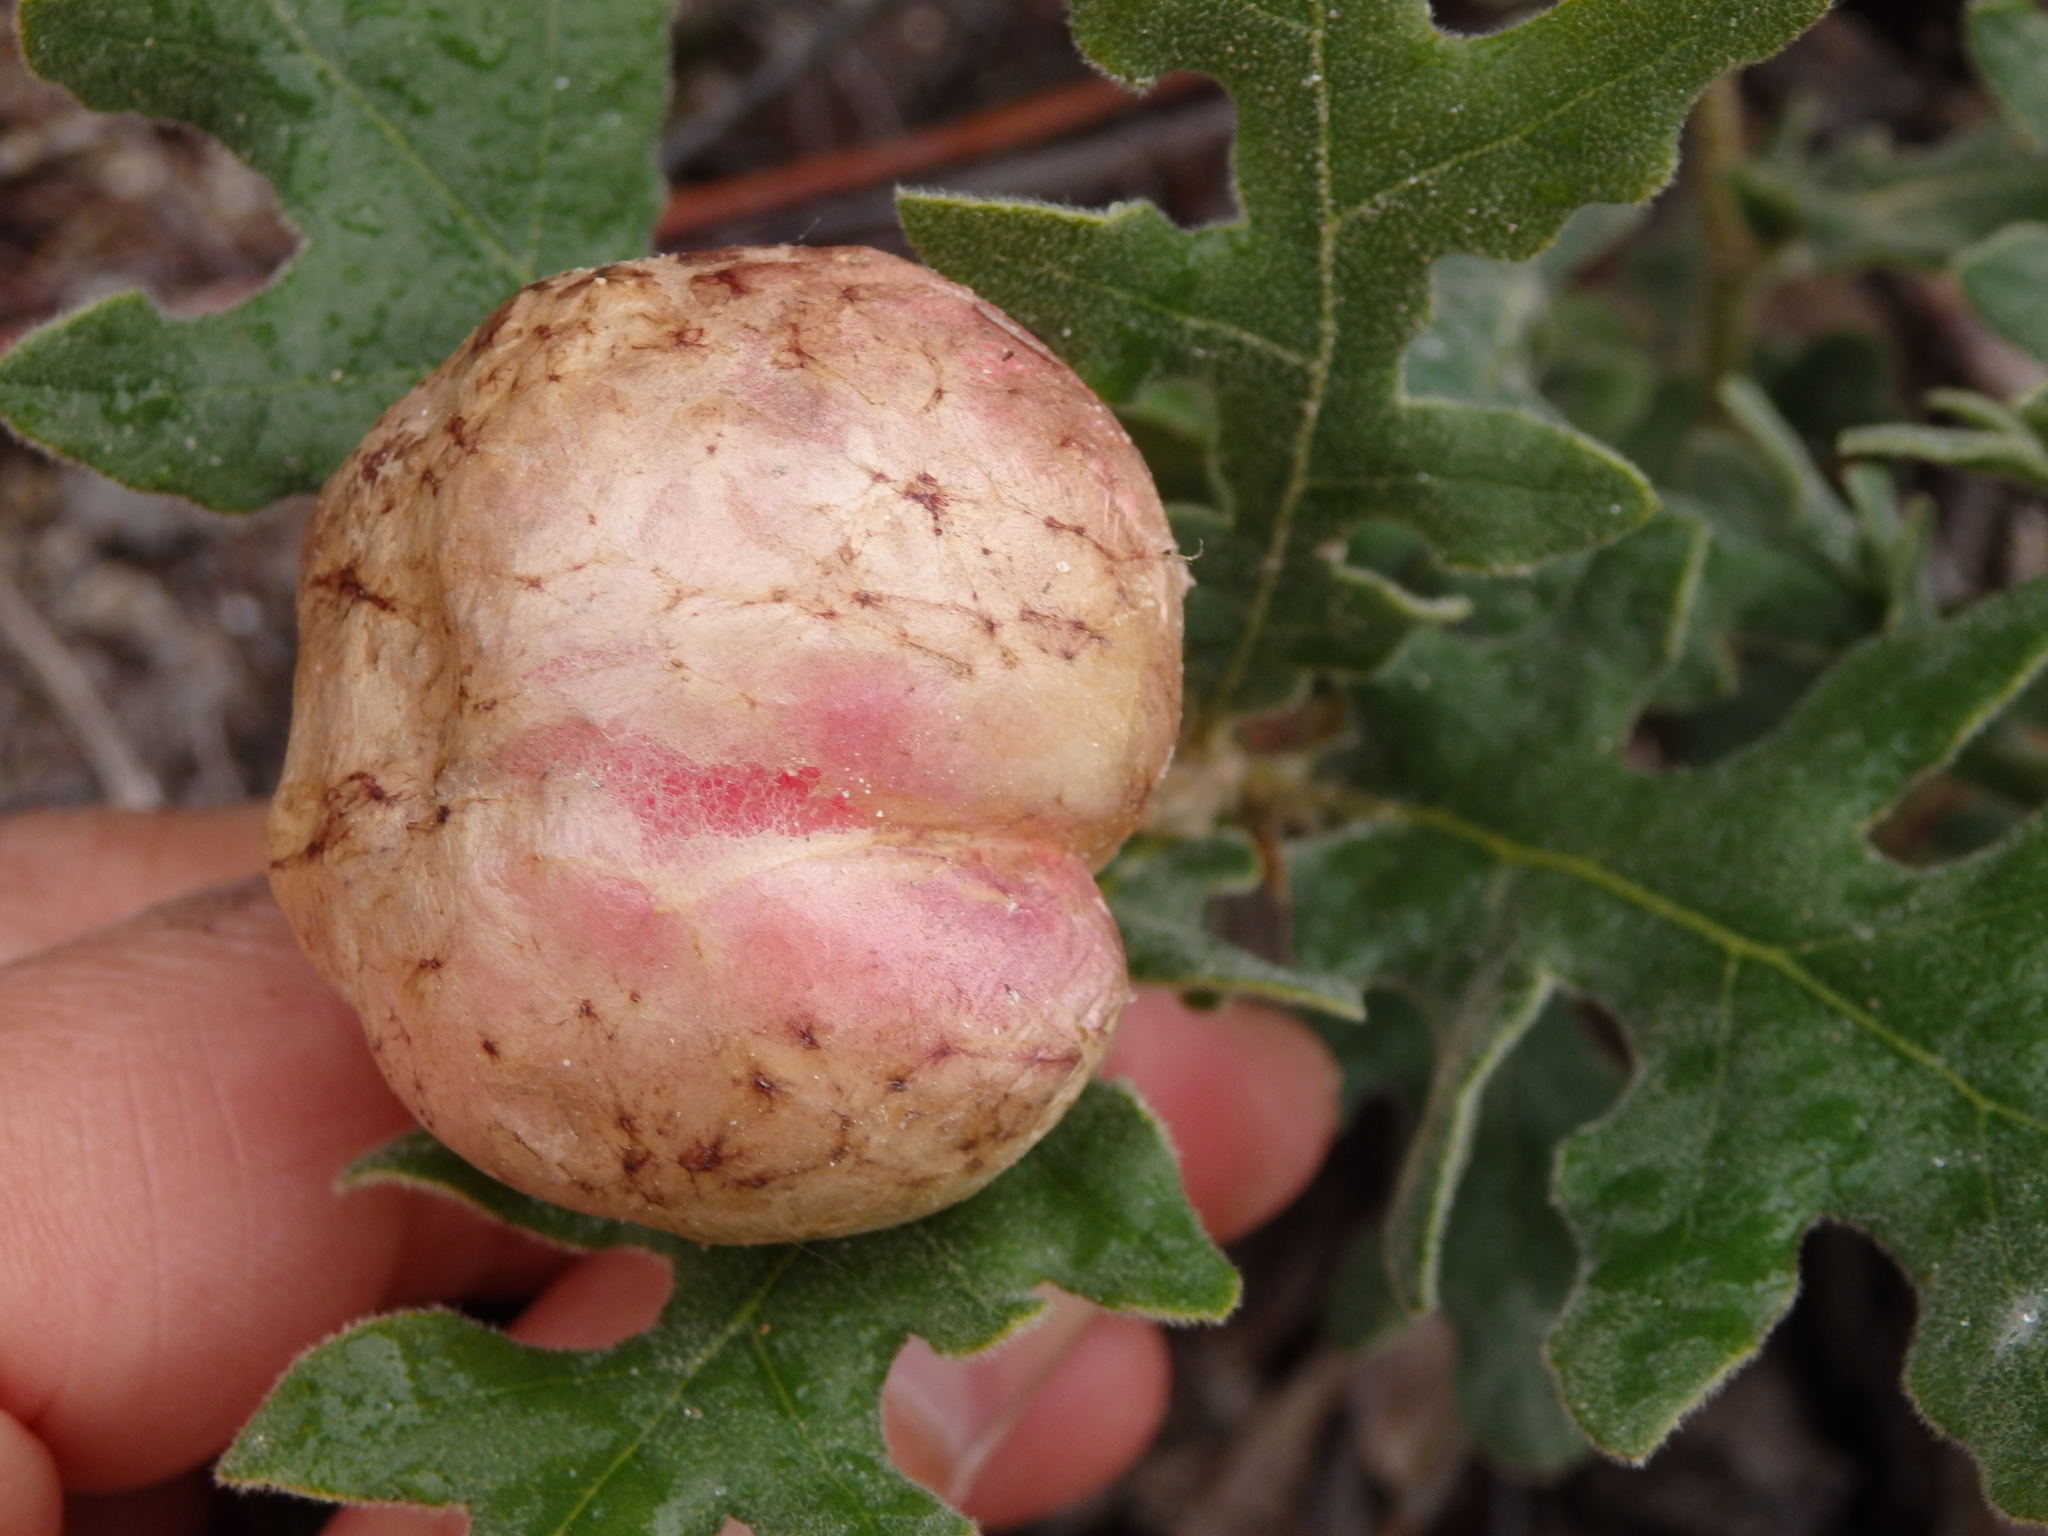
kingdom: Animalia
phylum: Arthropoda
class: Insecta
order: Hymenoptera
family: Cynipidae
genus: Biorhiza
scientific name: Biorhiza pallida
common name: Oak apple
